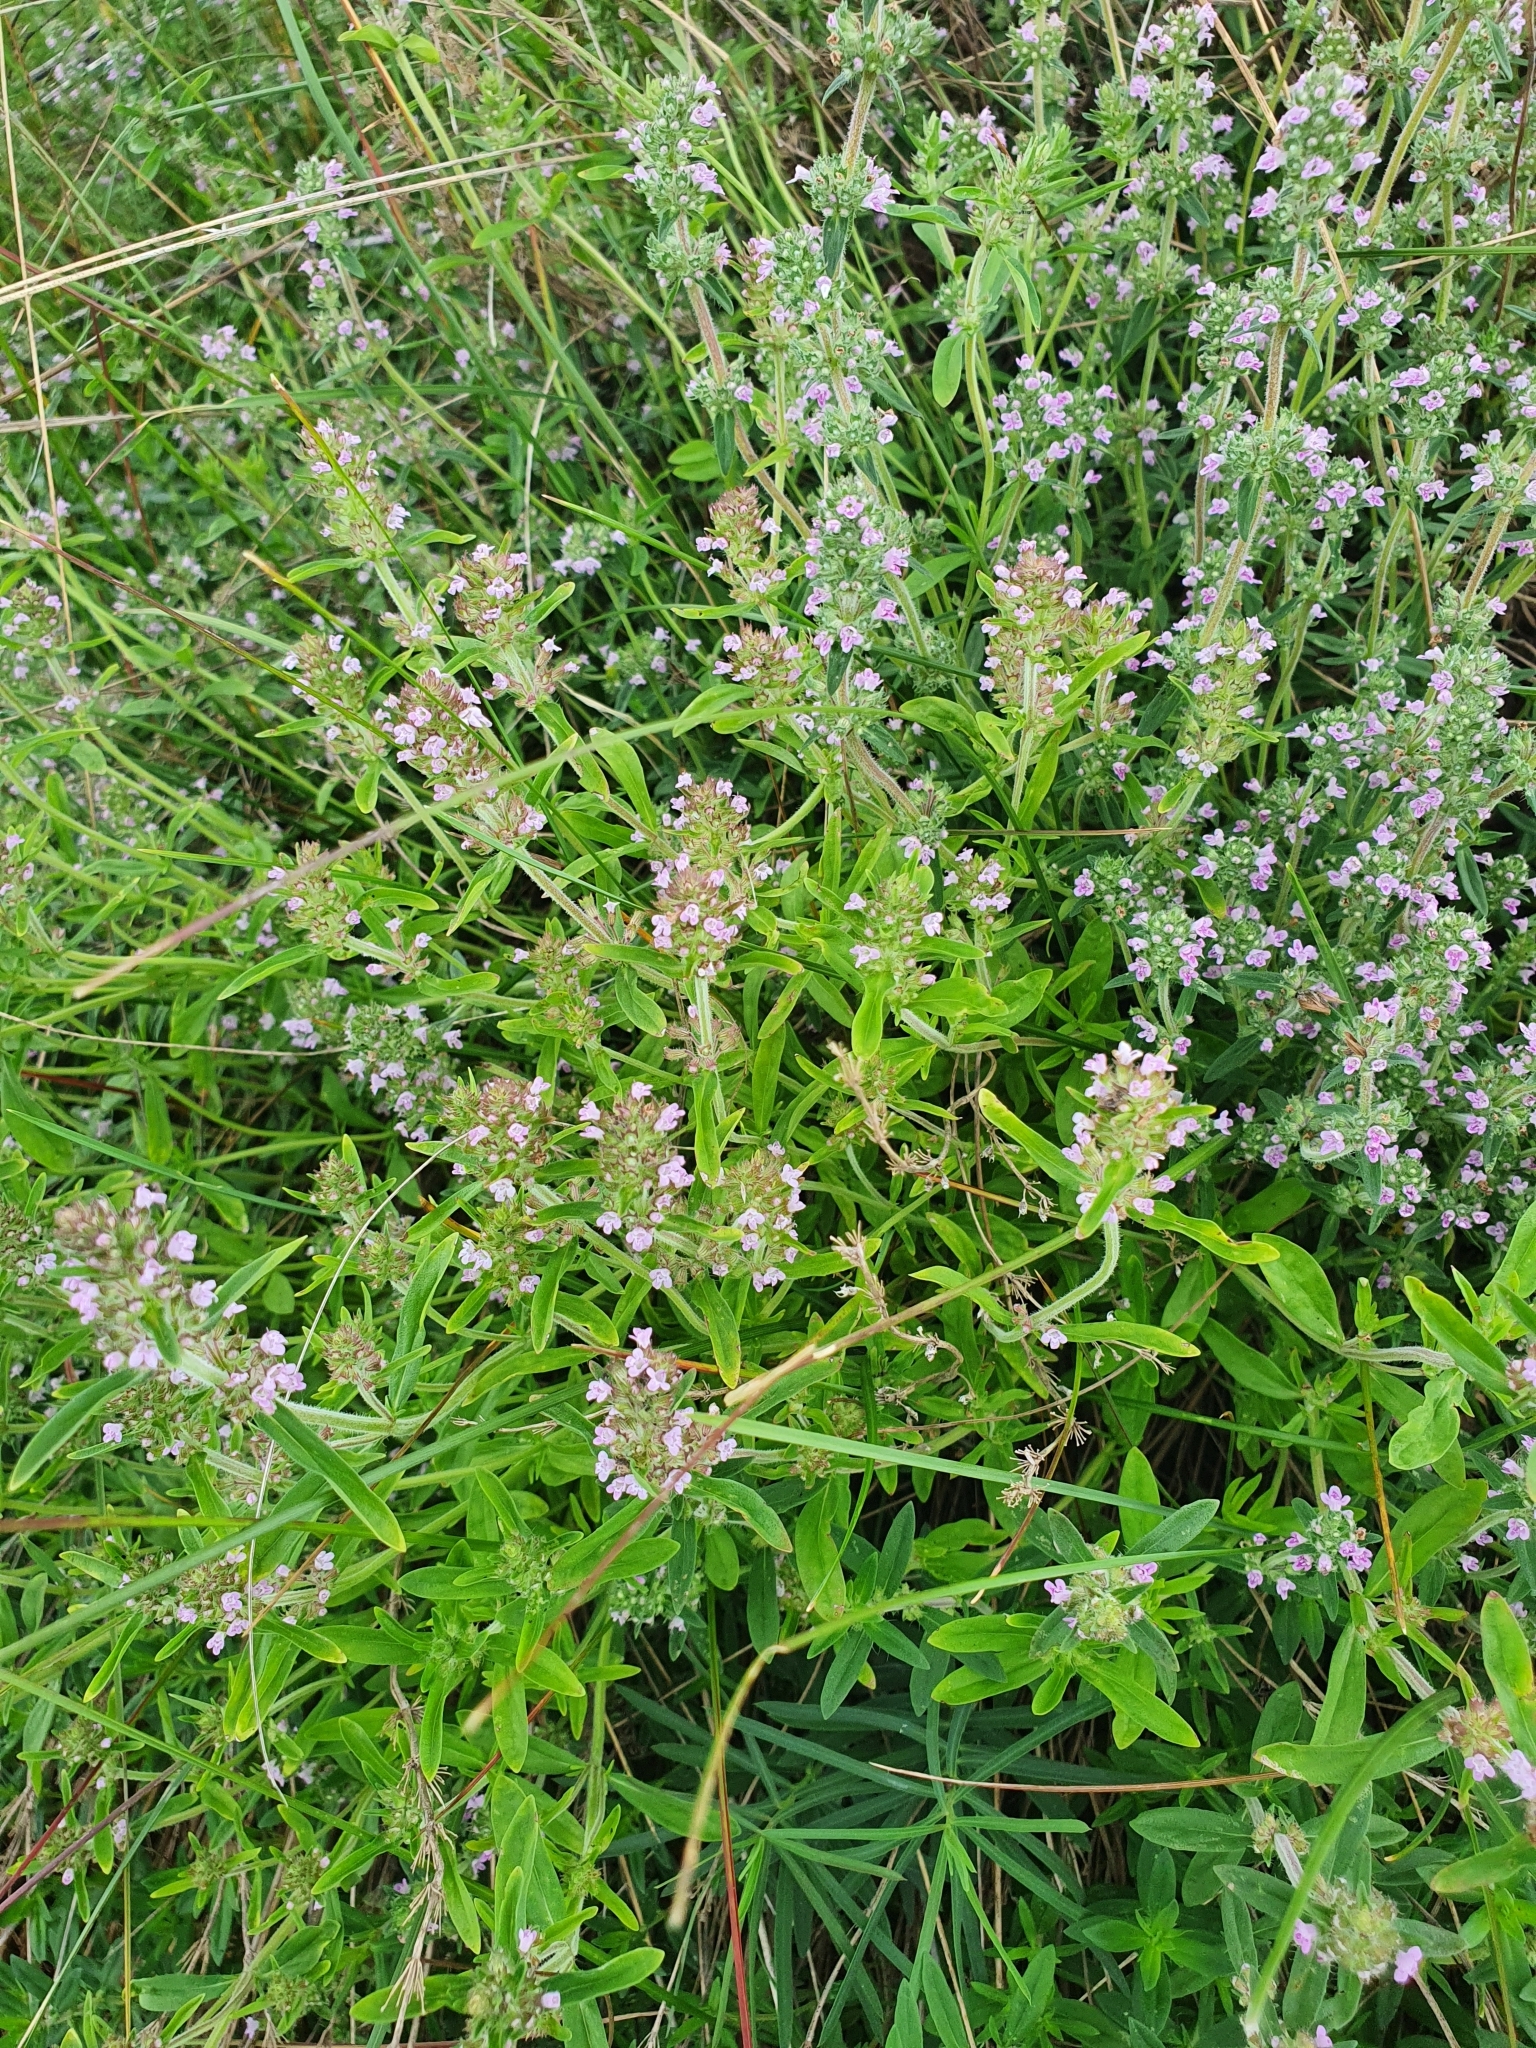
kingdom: Plantae
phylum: Tracheophyta
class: Magnoliopsida
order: Lamiales
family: Lamiaceae
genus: Thymus
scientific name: Thymus pannonicus
